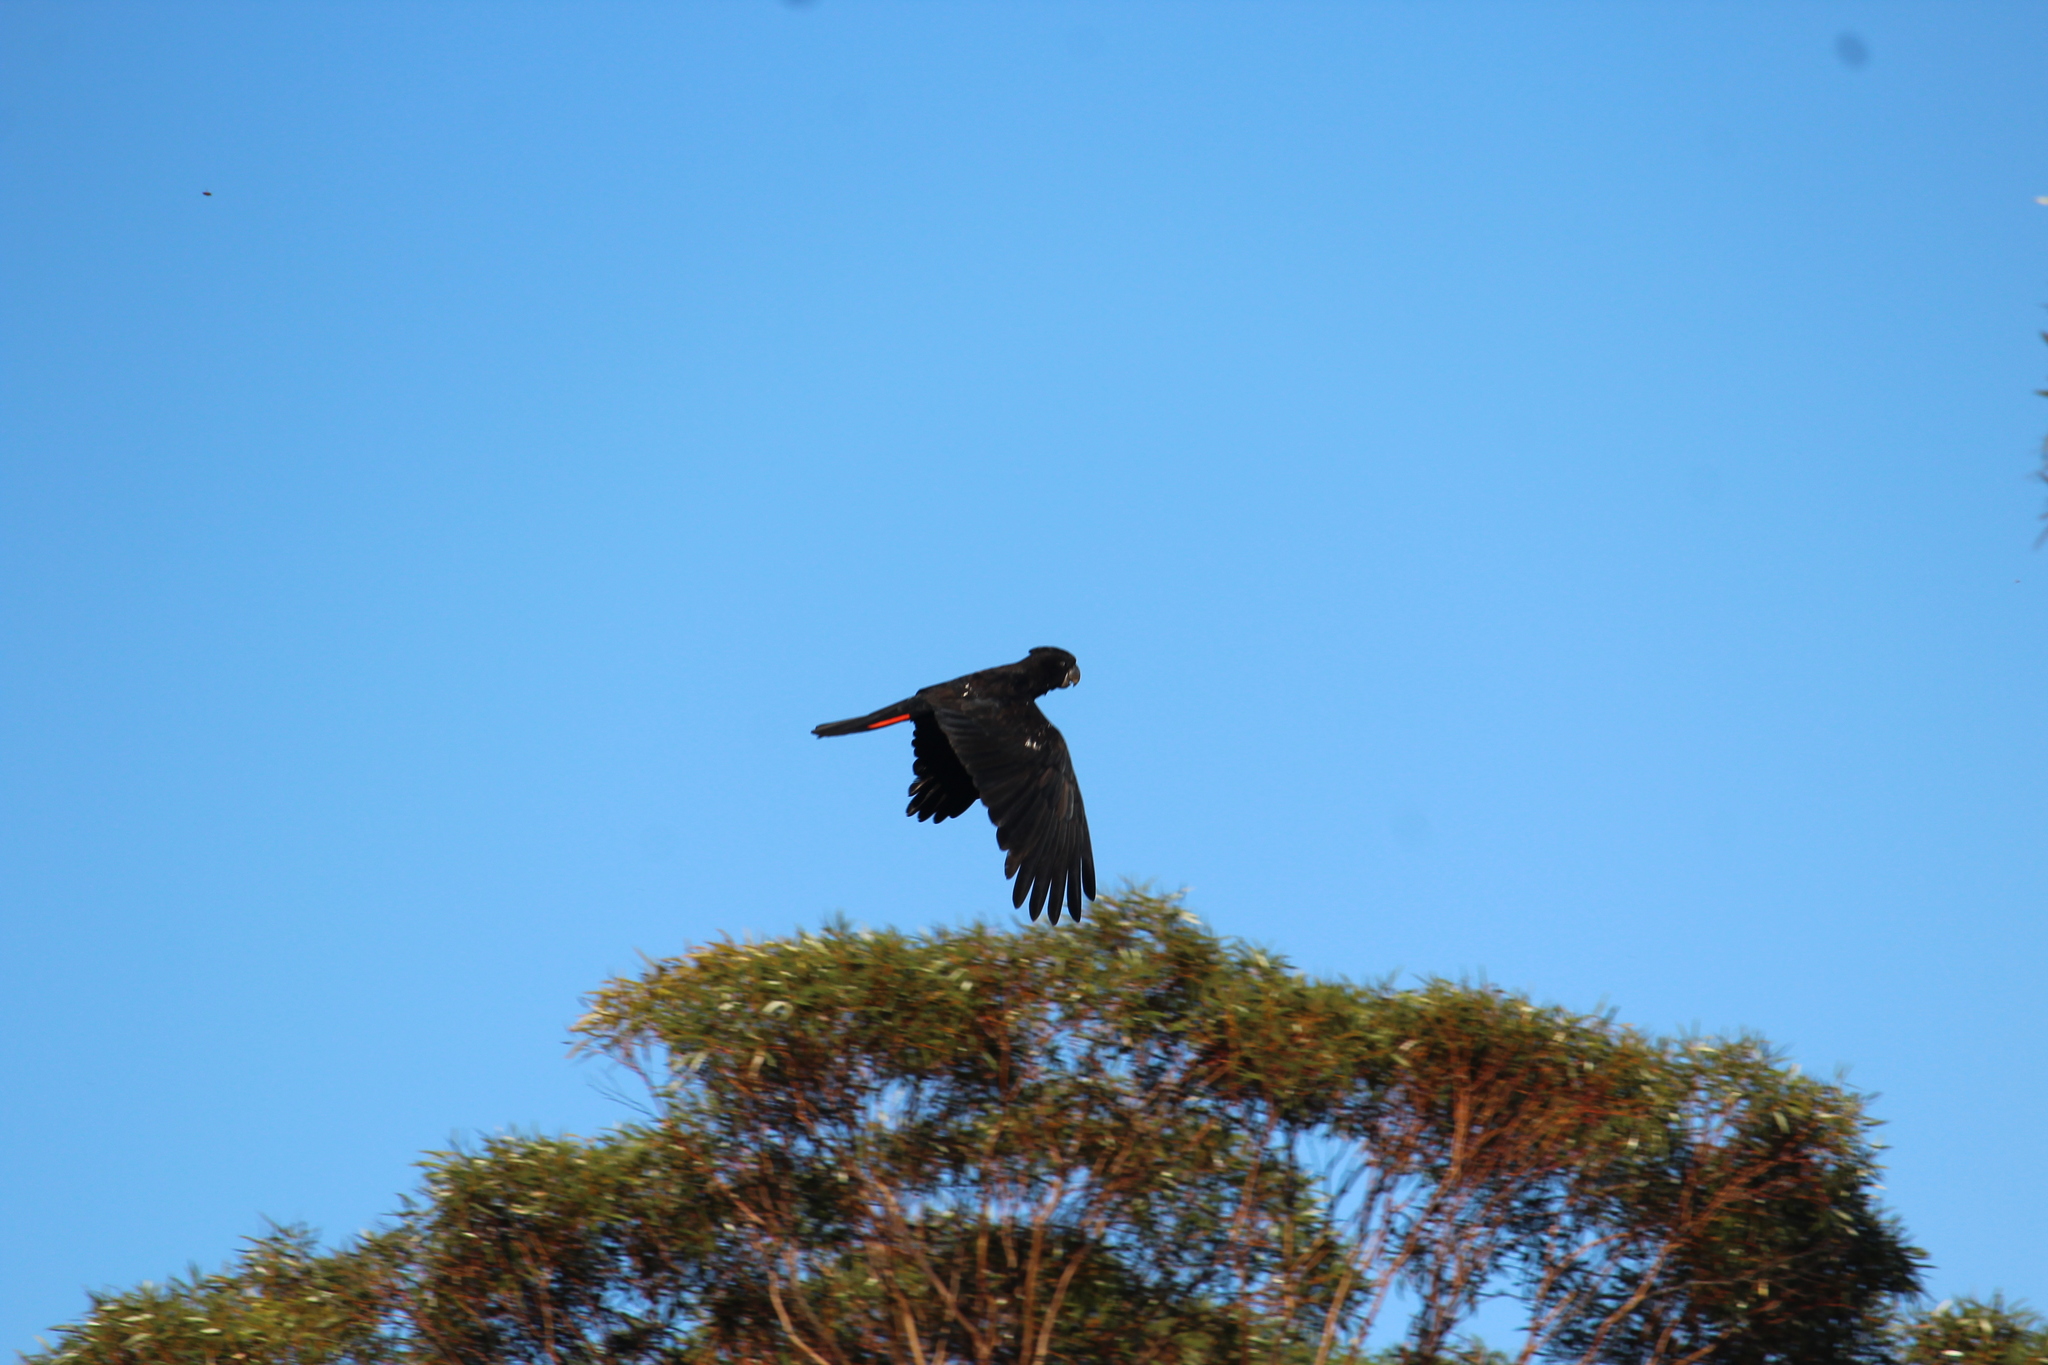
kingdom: Animalia
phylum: Chordata
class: Aves
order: Psittaciformes
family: Psittacidae
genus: Calyptorhynchus
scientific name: Calyptorhynchus banksii
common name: Red-tailed black cockatoo
